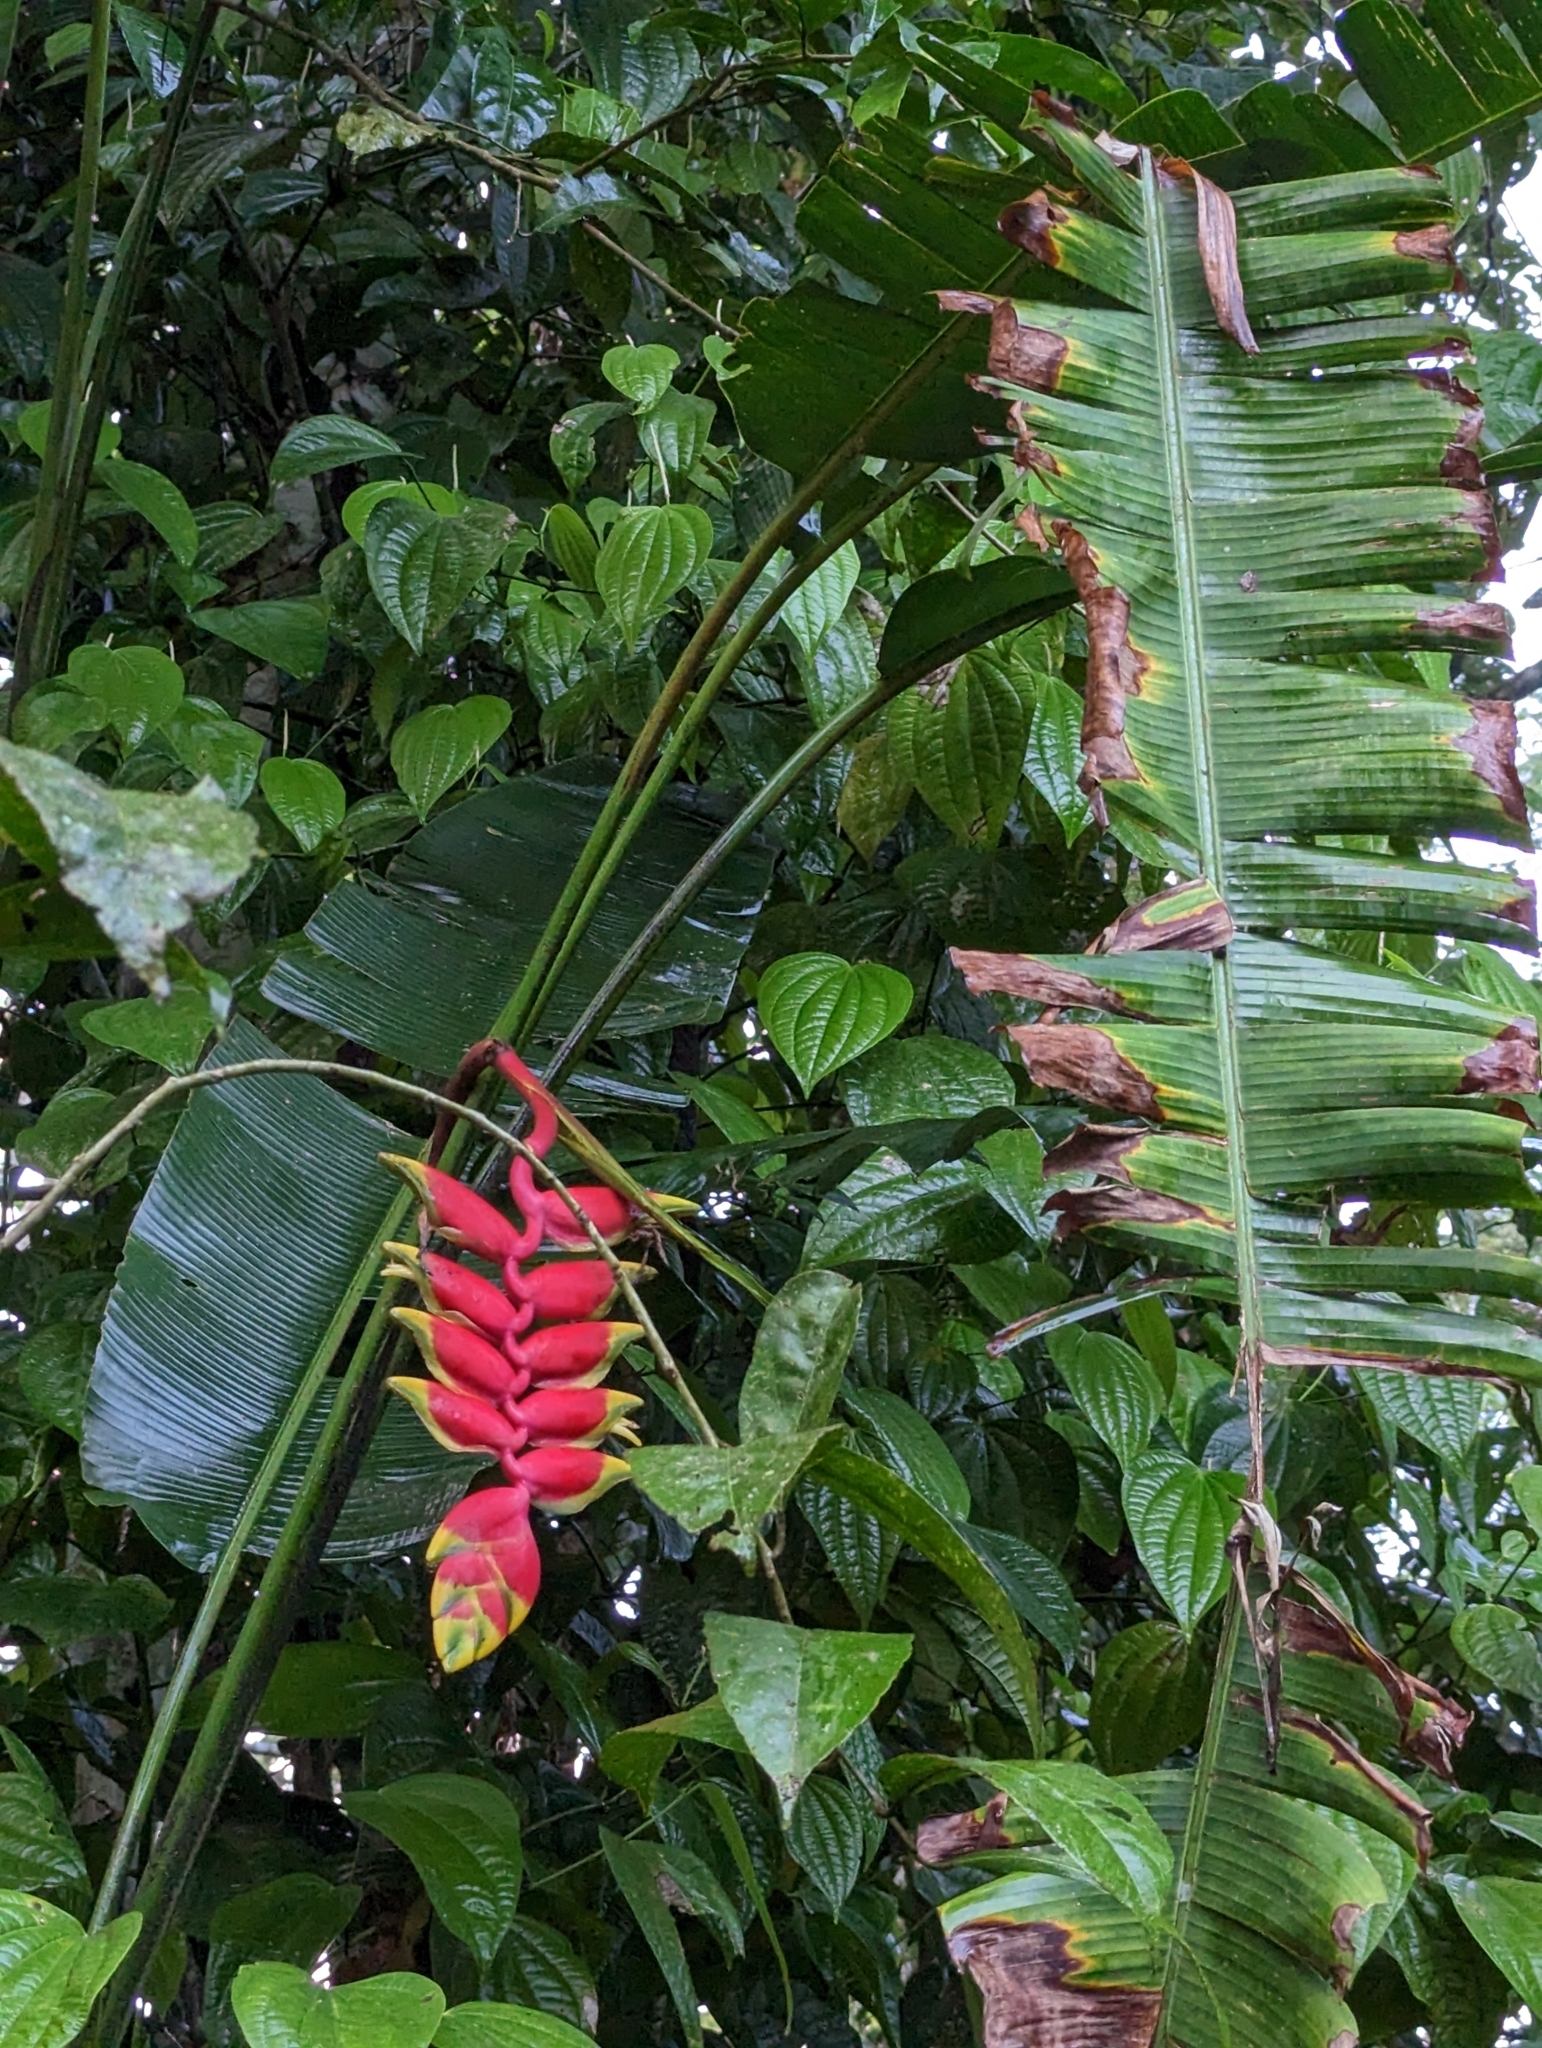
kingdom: Plantae
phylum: Tracheophyta
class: Liliopsida
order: Zingiberales
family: Heliconiaceae
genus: Heliconia
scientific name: Heliconia rostrata
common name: False bird of paradise
